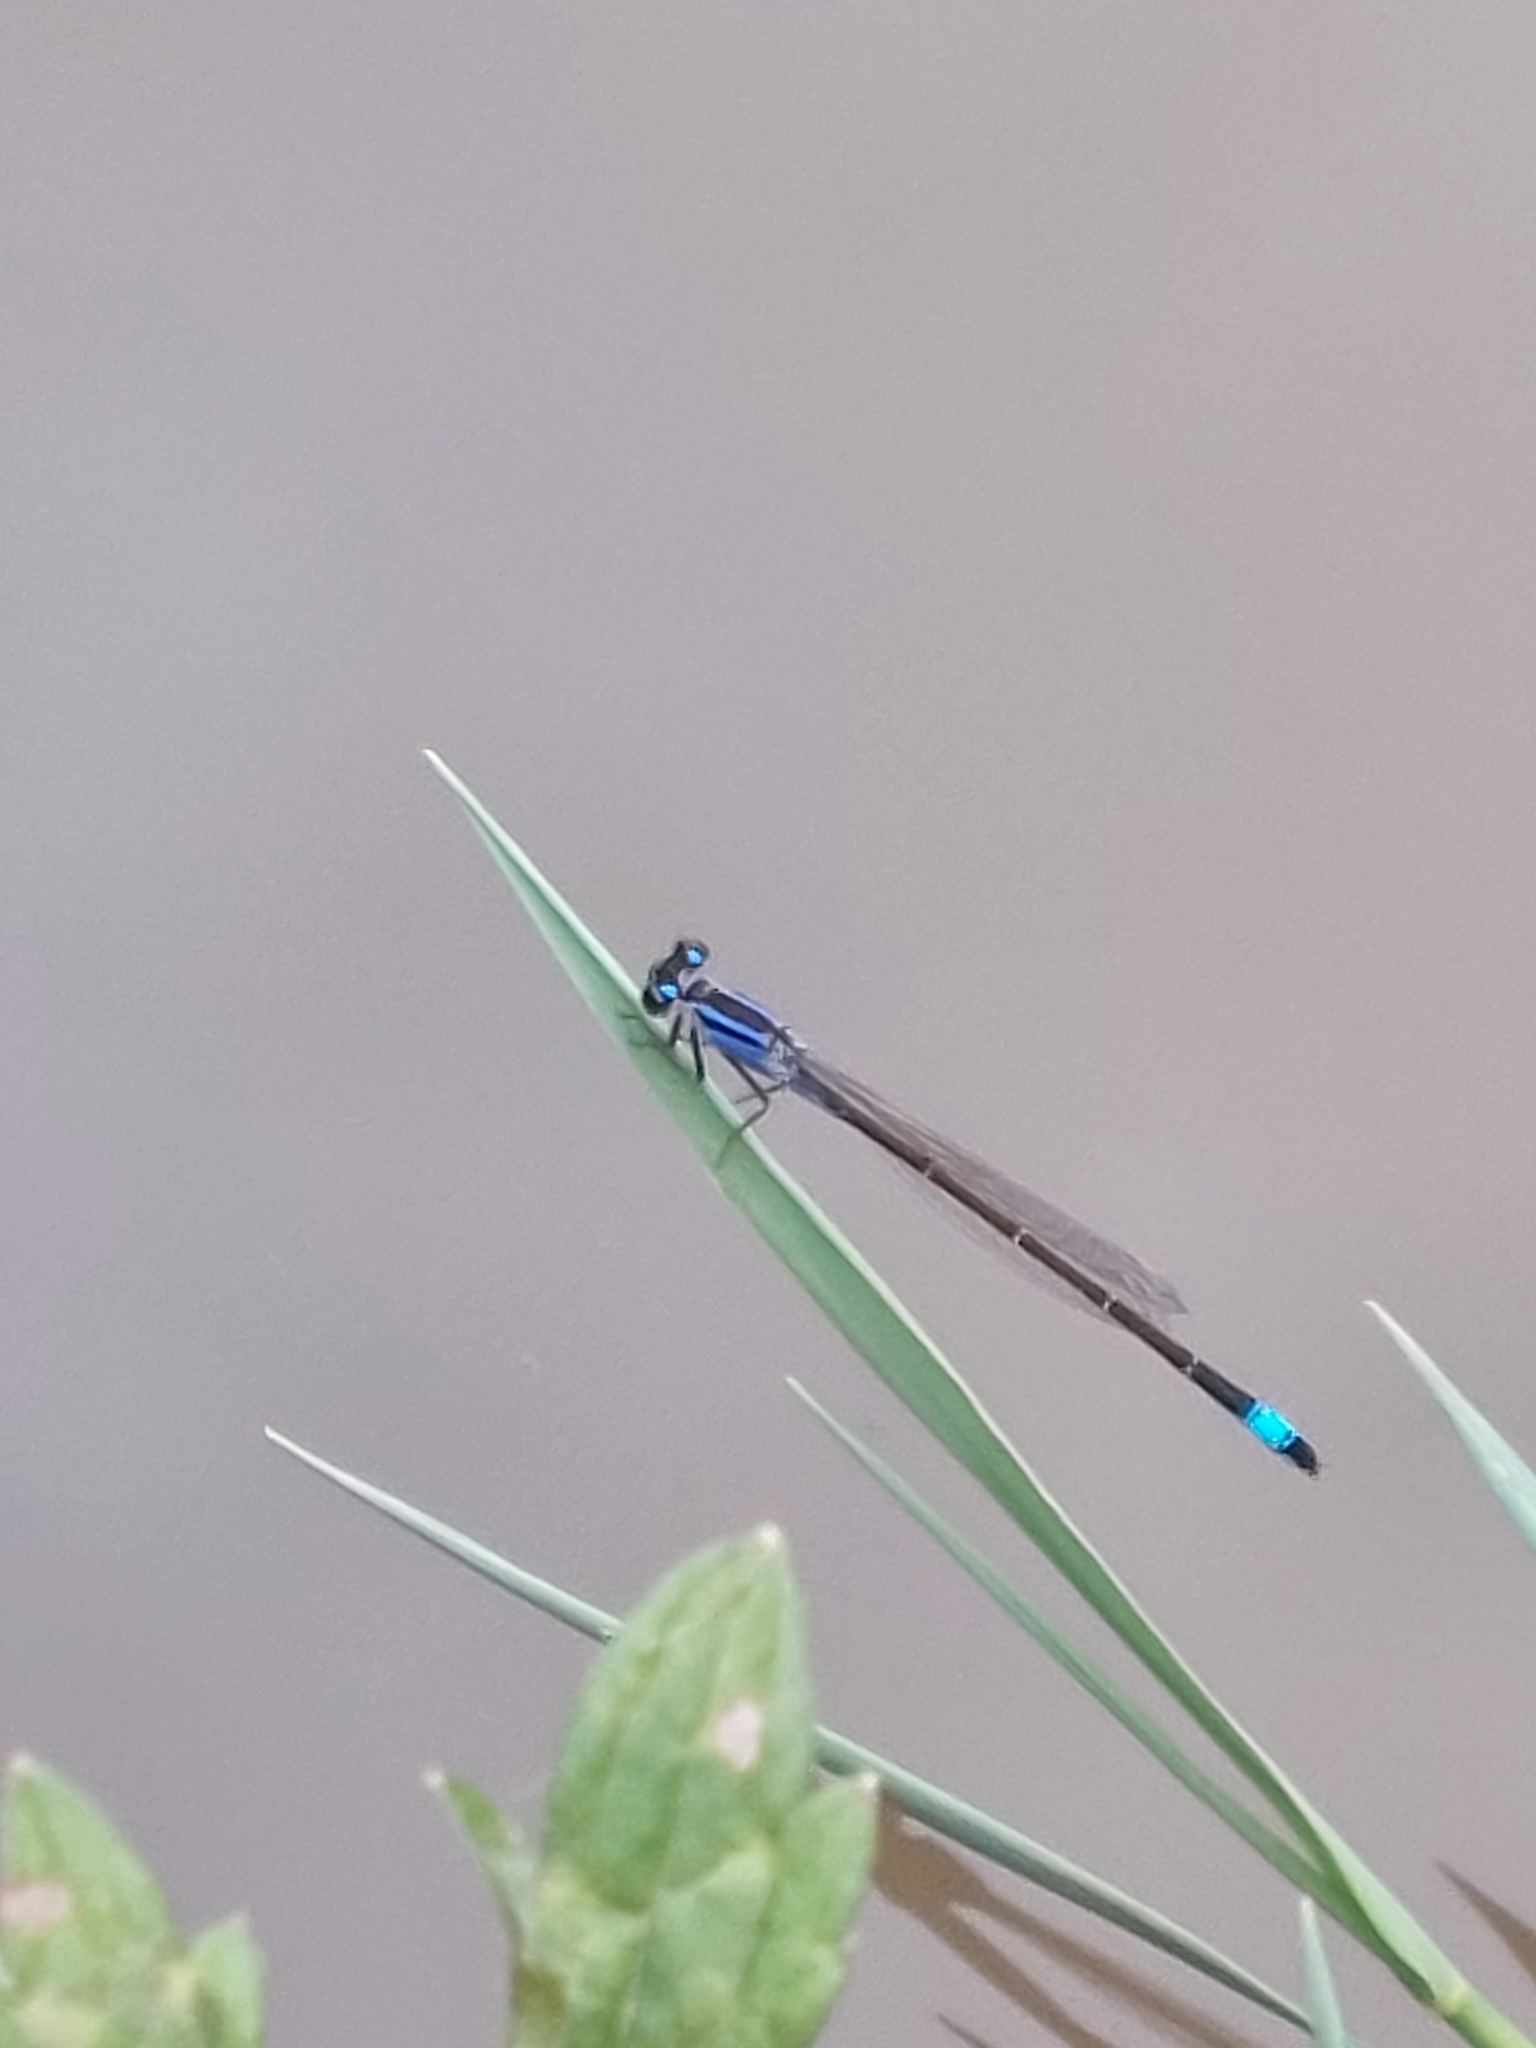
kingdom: Animalia
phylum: Arthropoda
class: Insecta
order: Odonata
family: Coenagrionidae
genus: Ischnura
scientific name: Ischnura elegans
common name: Blue-tailed damselfly
